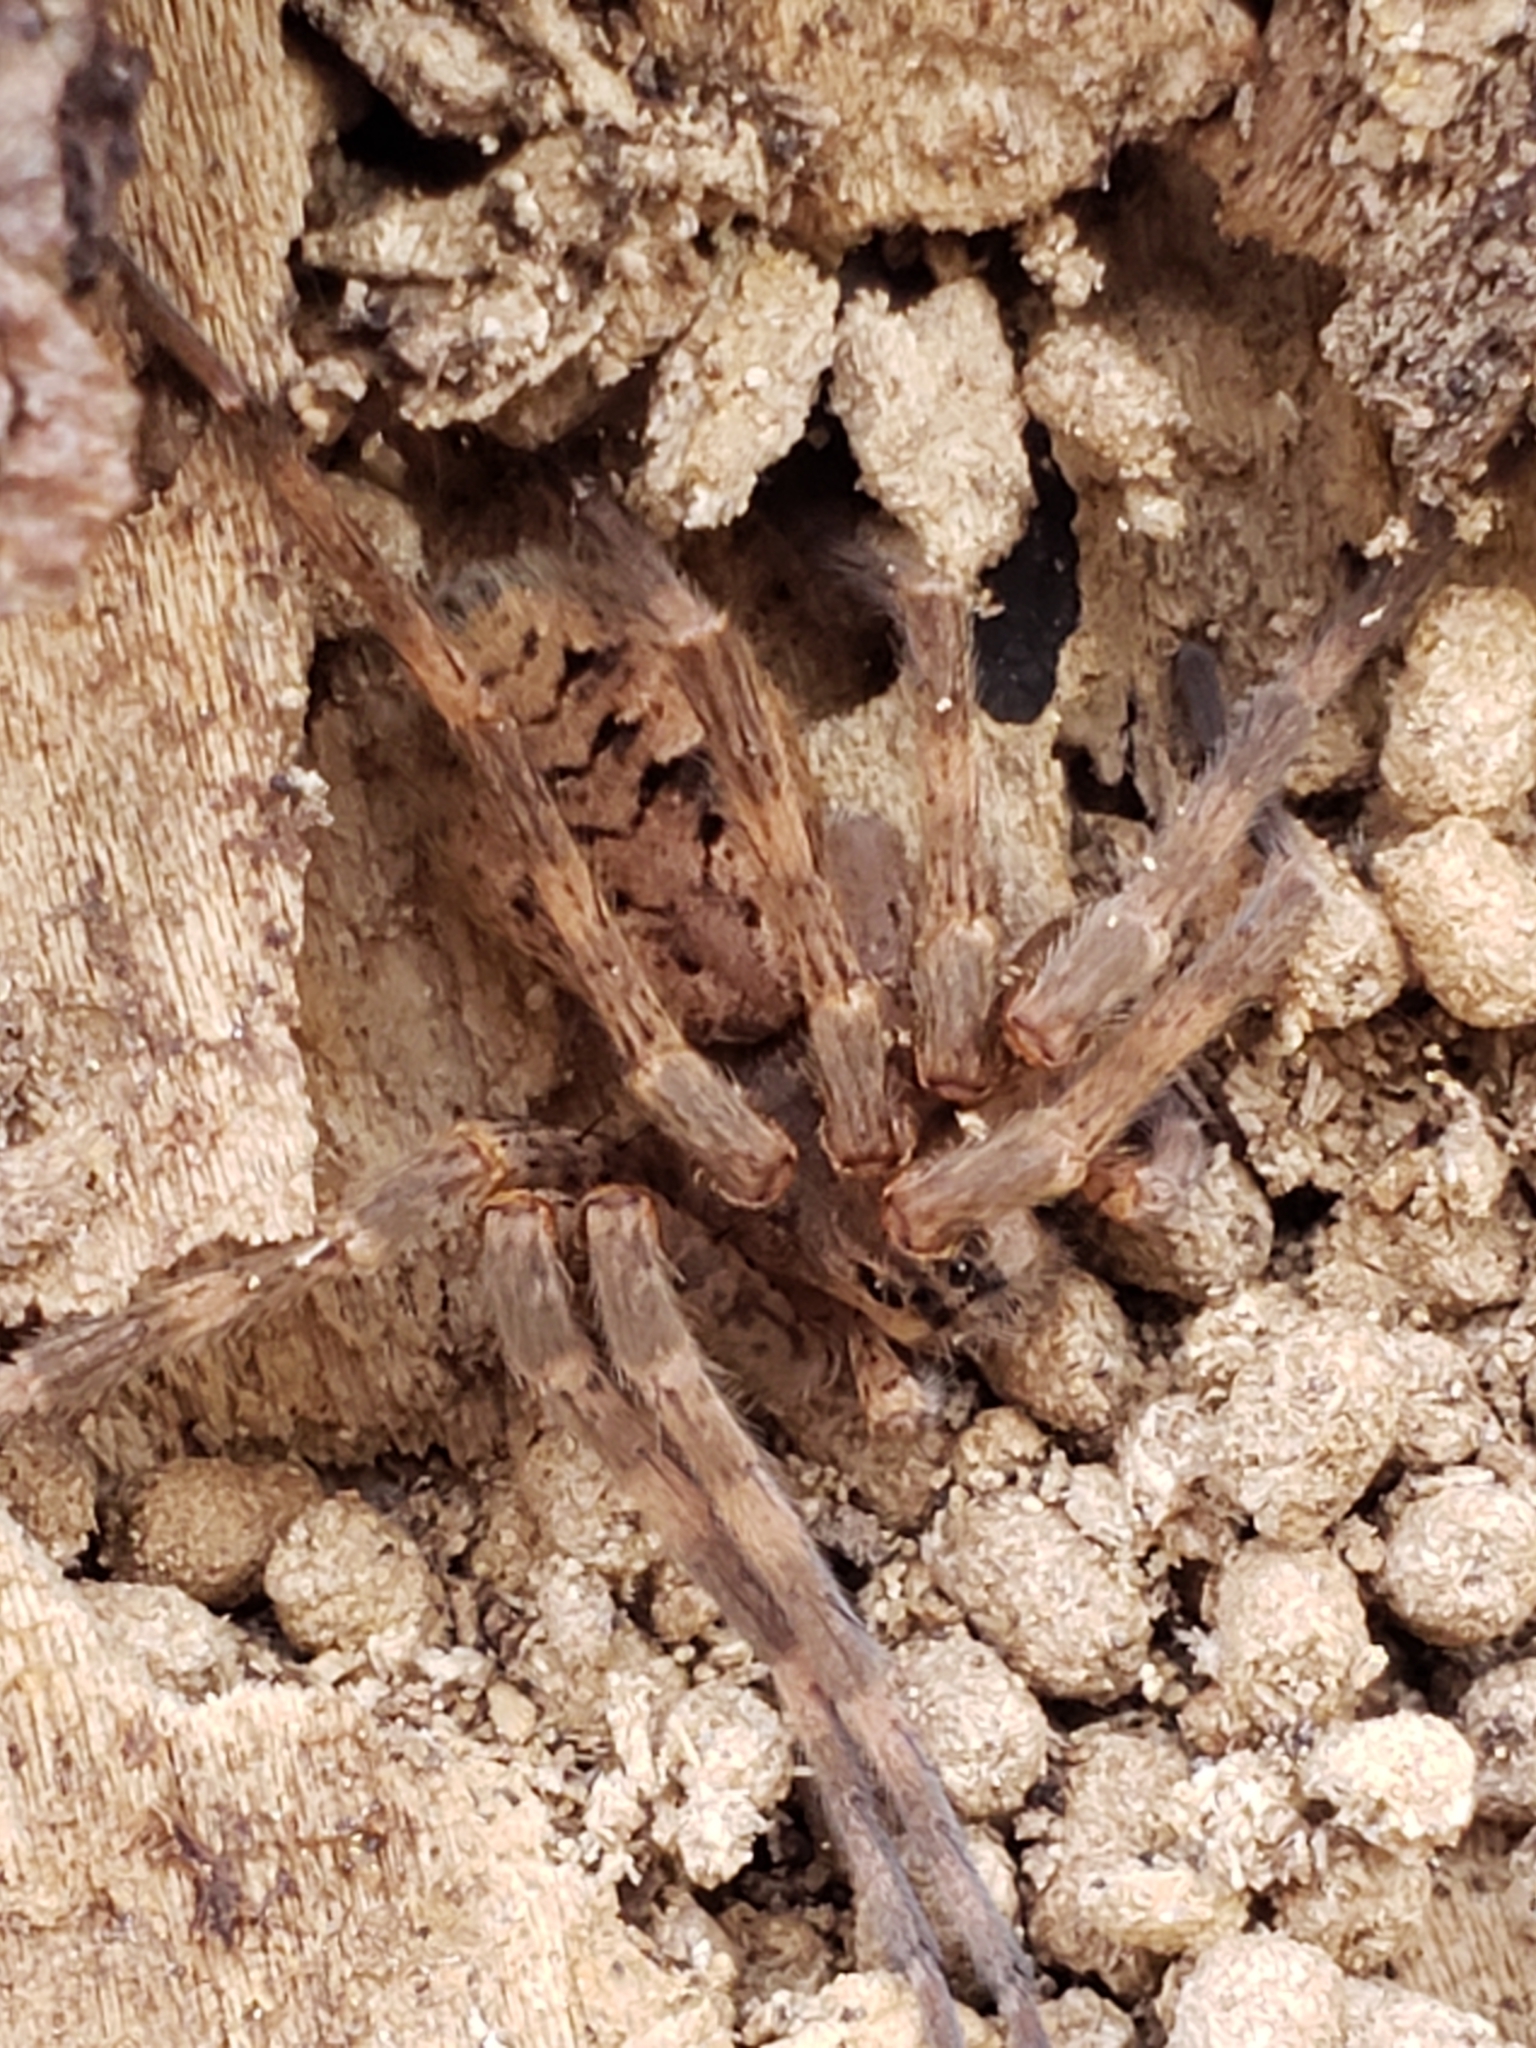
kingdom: Animalia
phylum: Arthropoda
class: Arachnida
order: Araneae
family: Pisauridae
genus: Dolomedes
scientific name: Dolomedes tenebrosus
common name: Dark fishing spider
